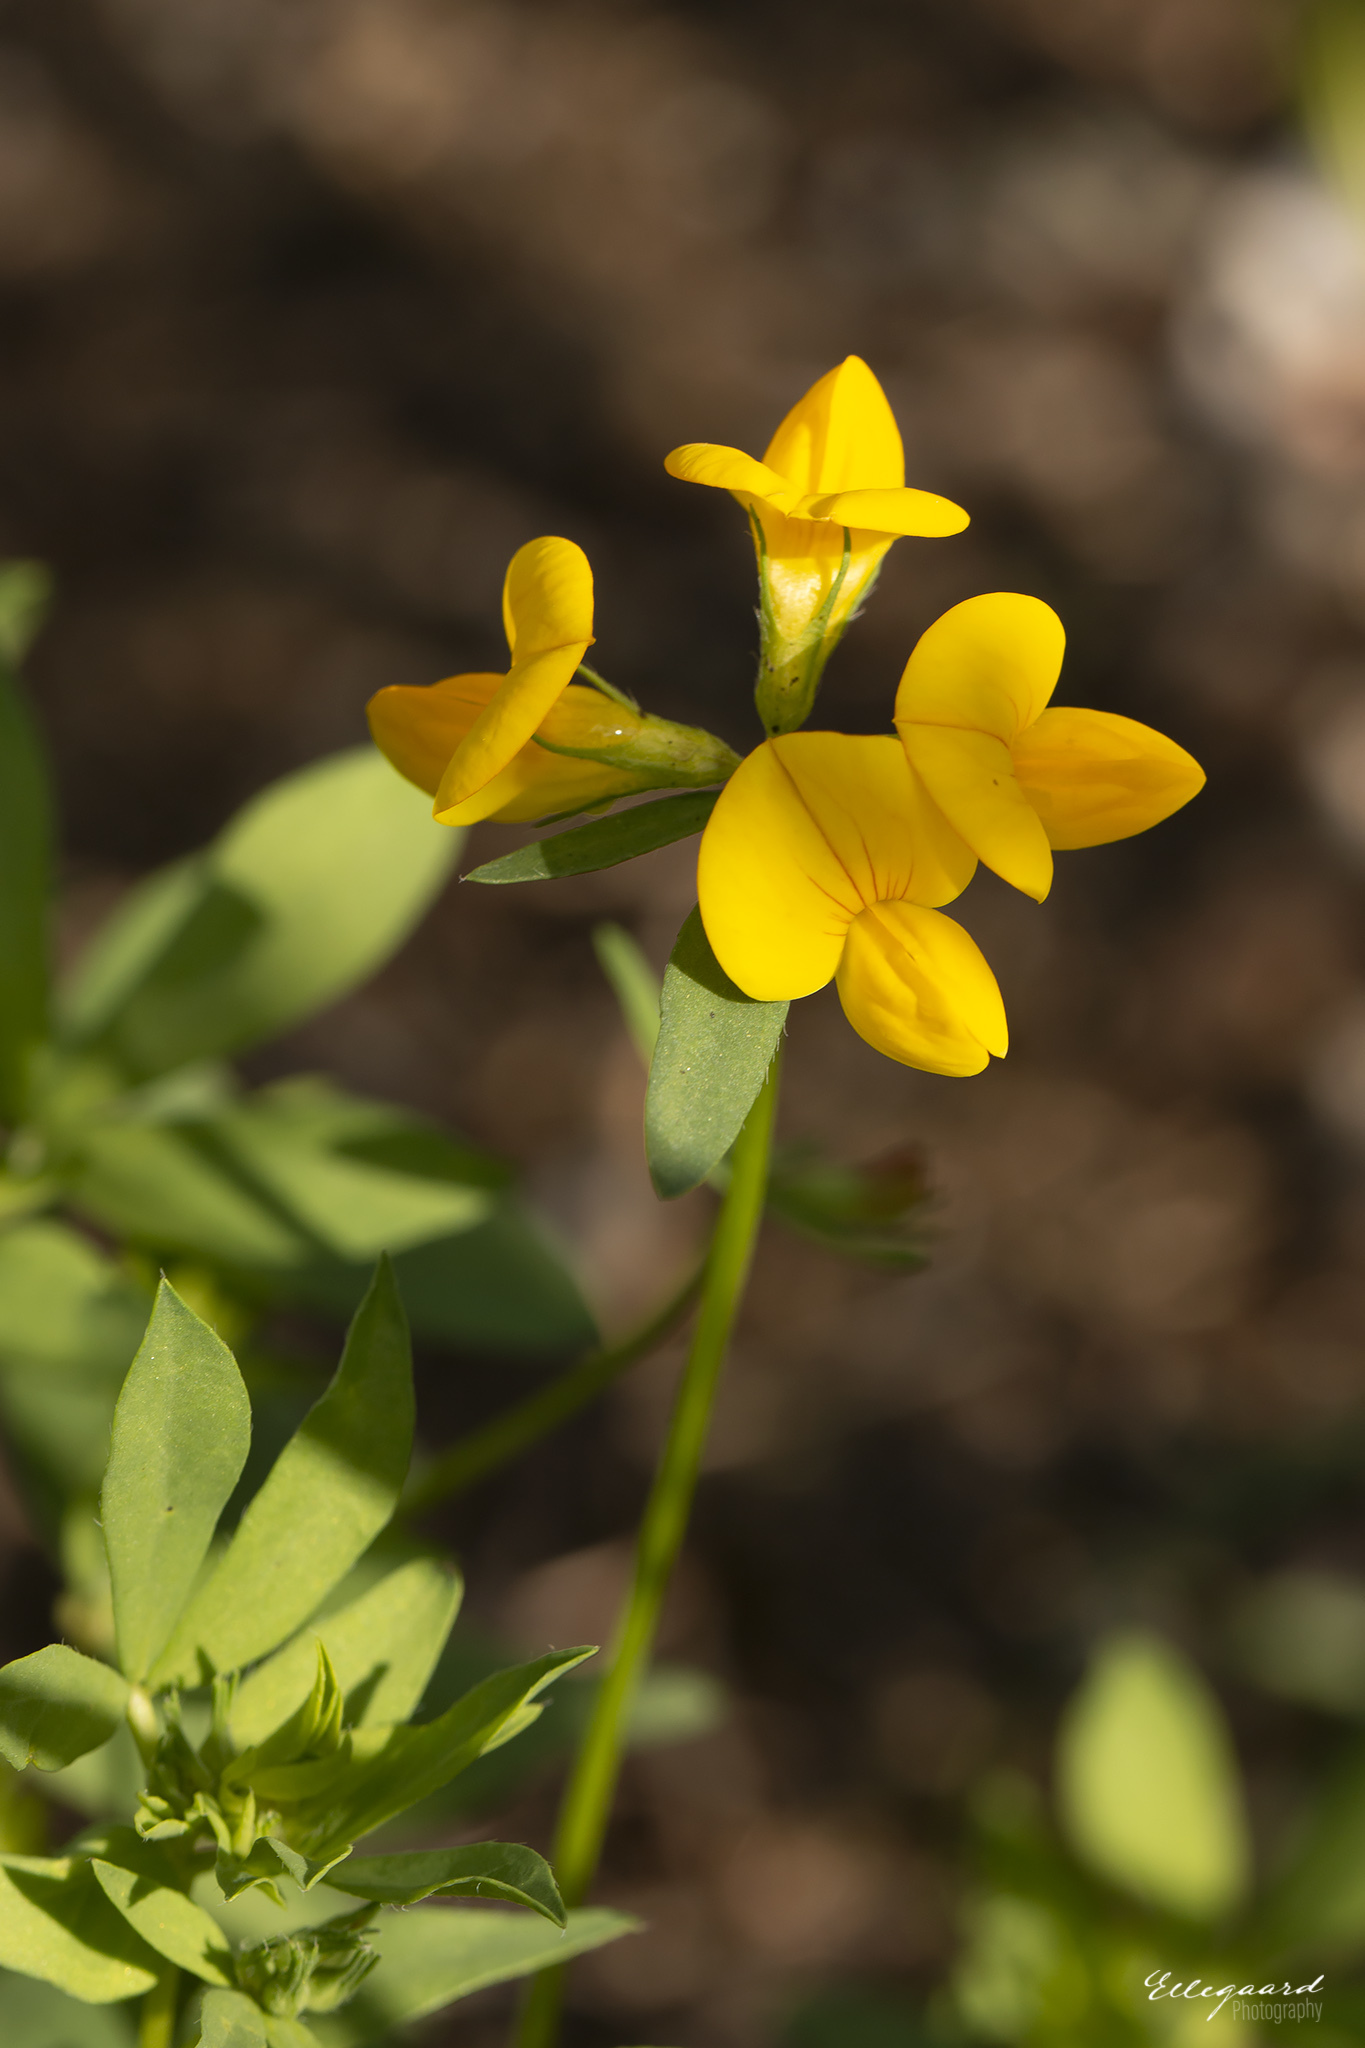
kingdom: Plantae
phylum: Tracheophyta
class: Magnoliopsida
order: Fabales
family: Fabaceae
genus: Lotus
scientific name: Lotus corniculatus
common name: Common bird's-foot-trefoil
